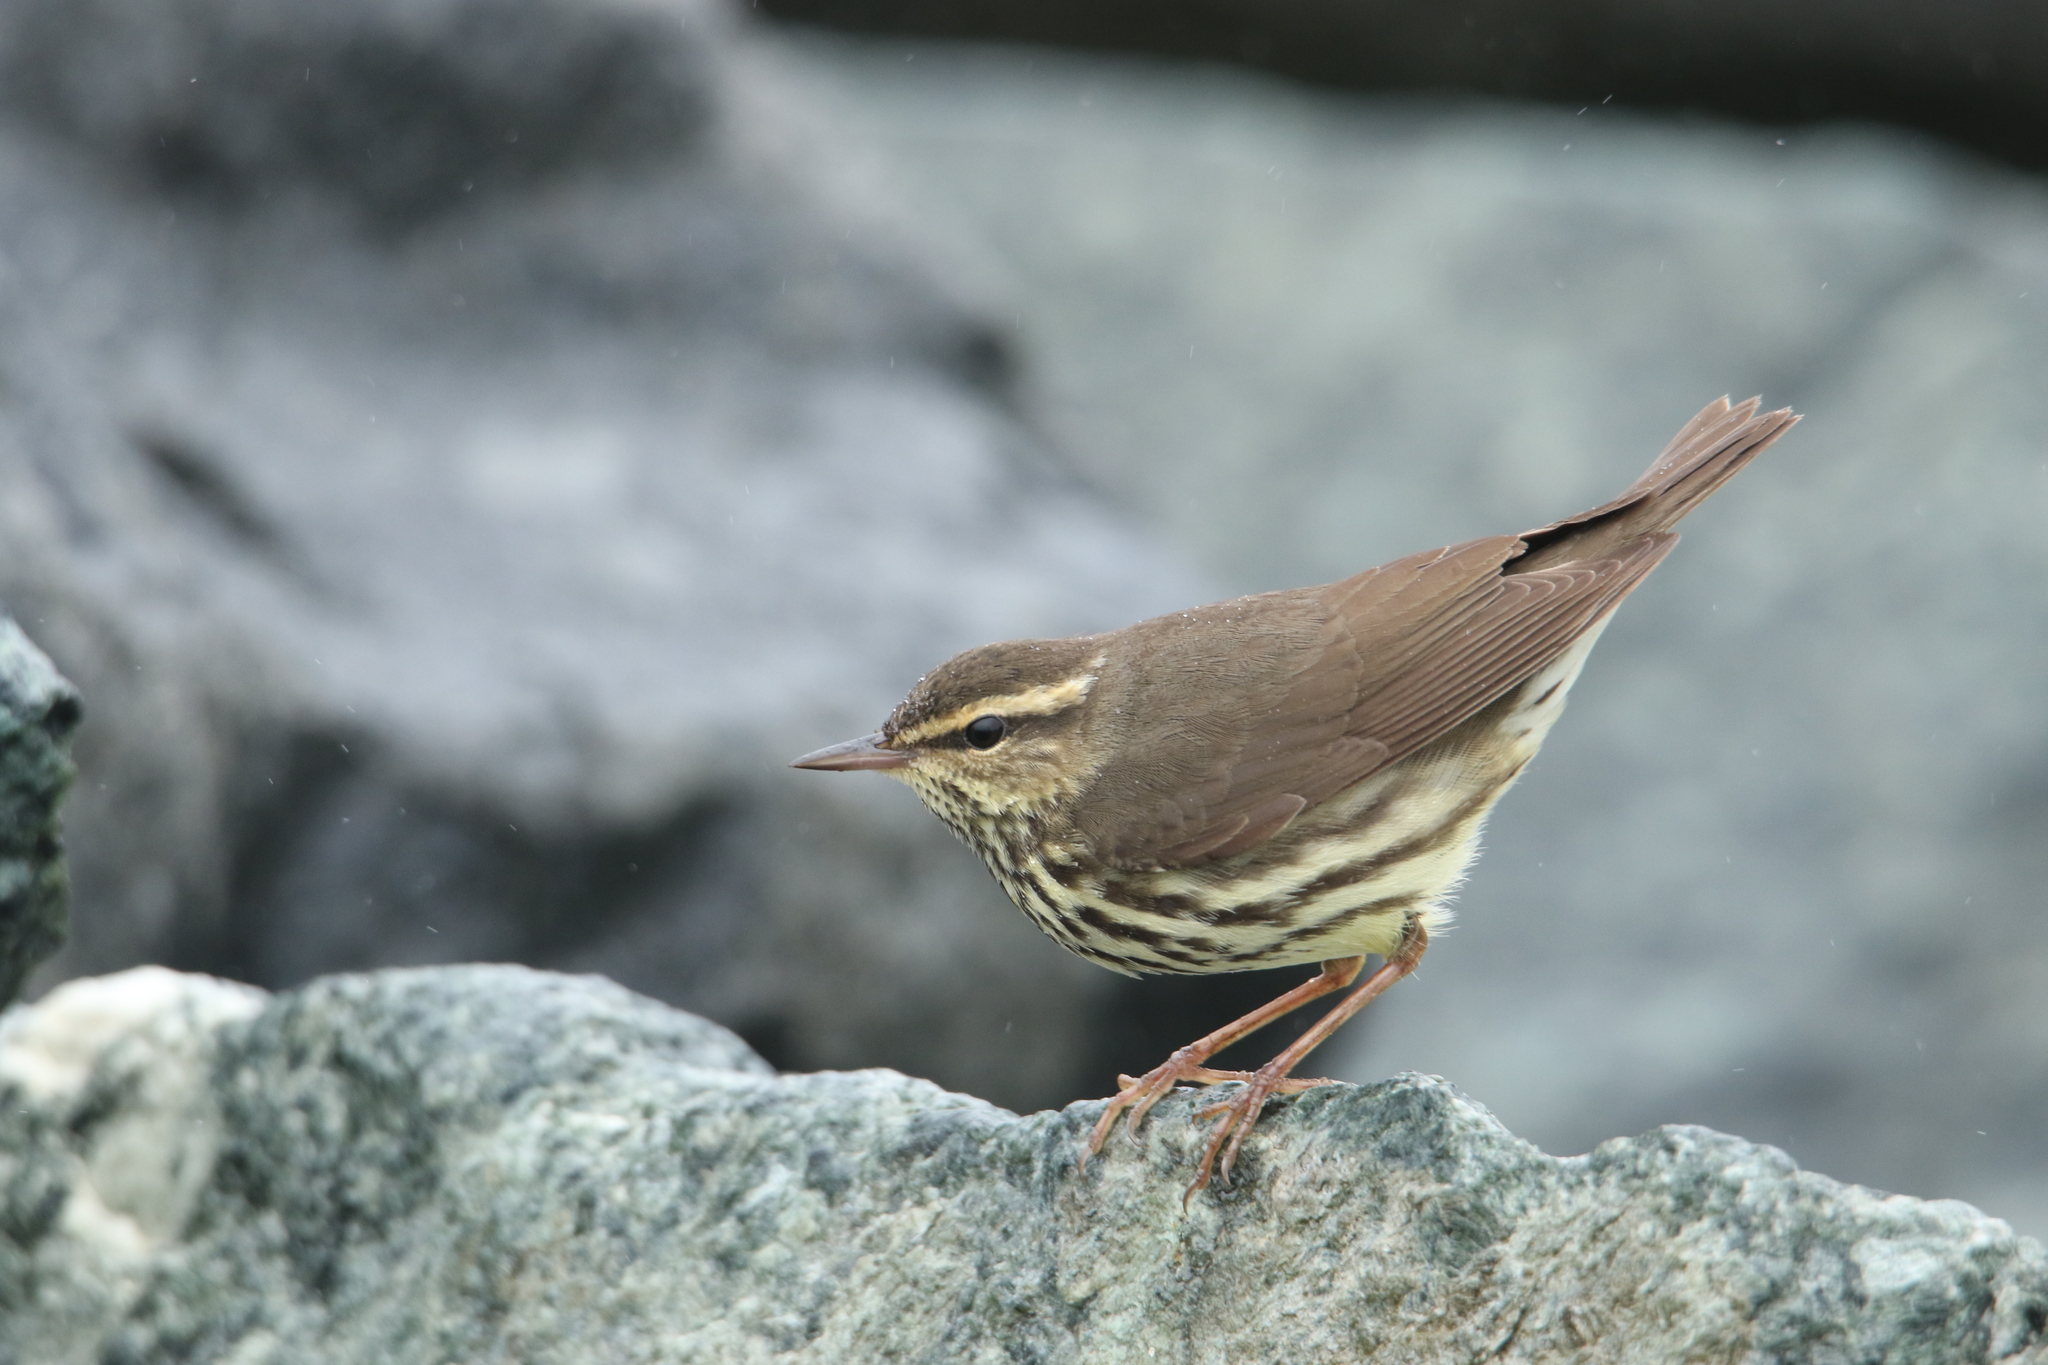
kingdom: Animalia
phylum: Chordata
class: Aves
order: Passeriformes
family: Parulidae
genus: Parkesia
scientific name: Parkesia noveboracensis
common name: Northern waterthrush
